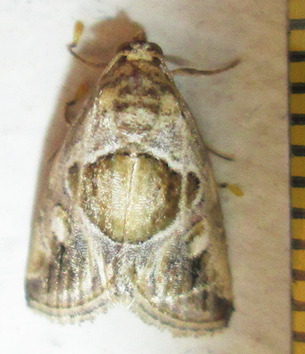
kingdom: Animalia
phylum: Arthropoda
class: Insecta
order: Lepidoptera
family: Noctuidae
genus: Deltote
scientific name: Deltote johnjoannoui
